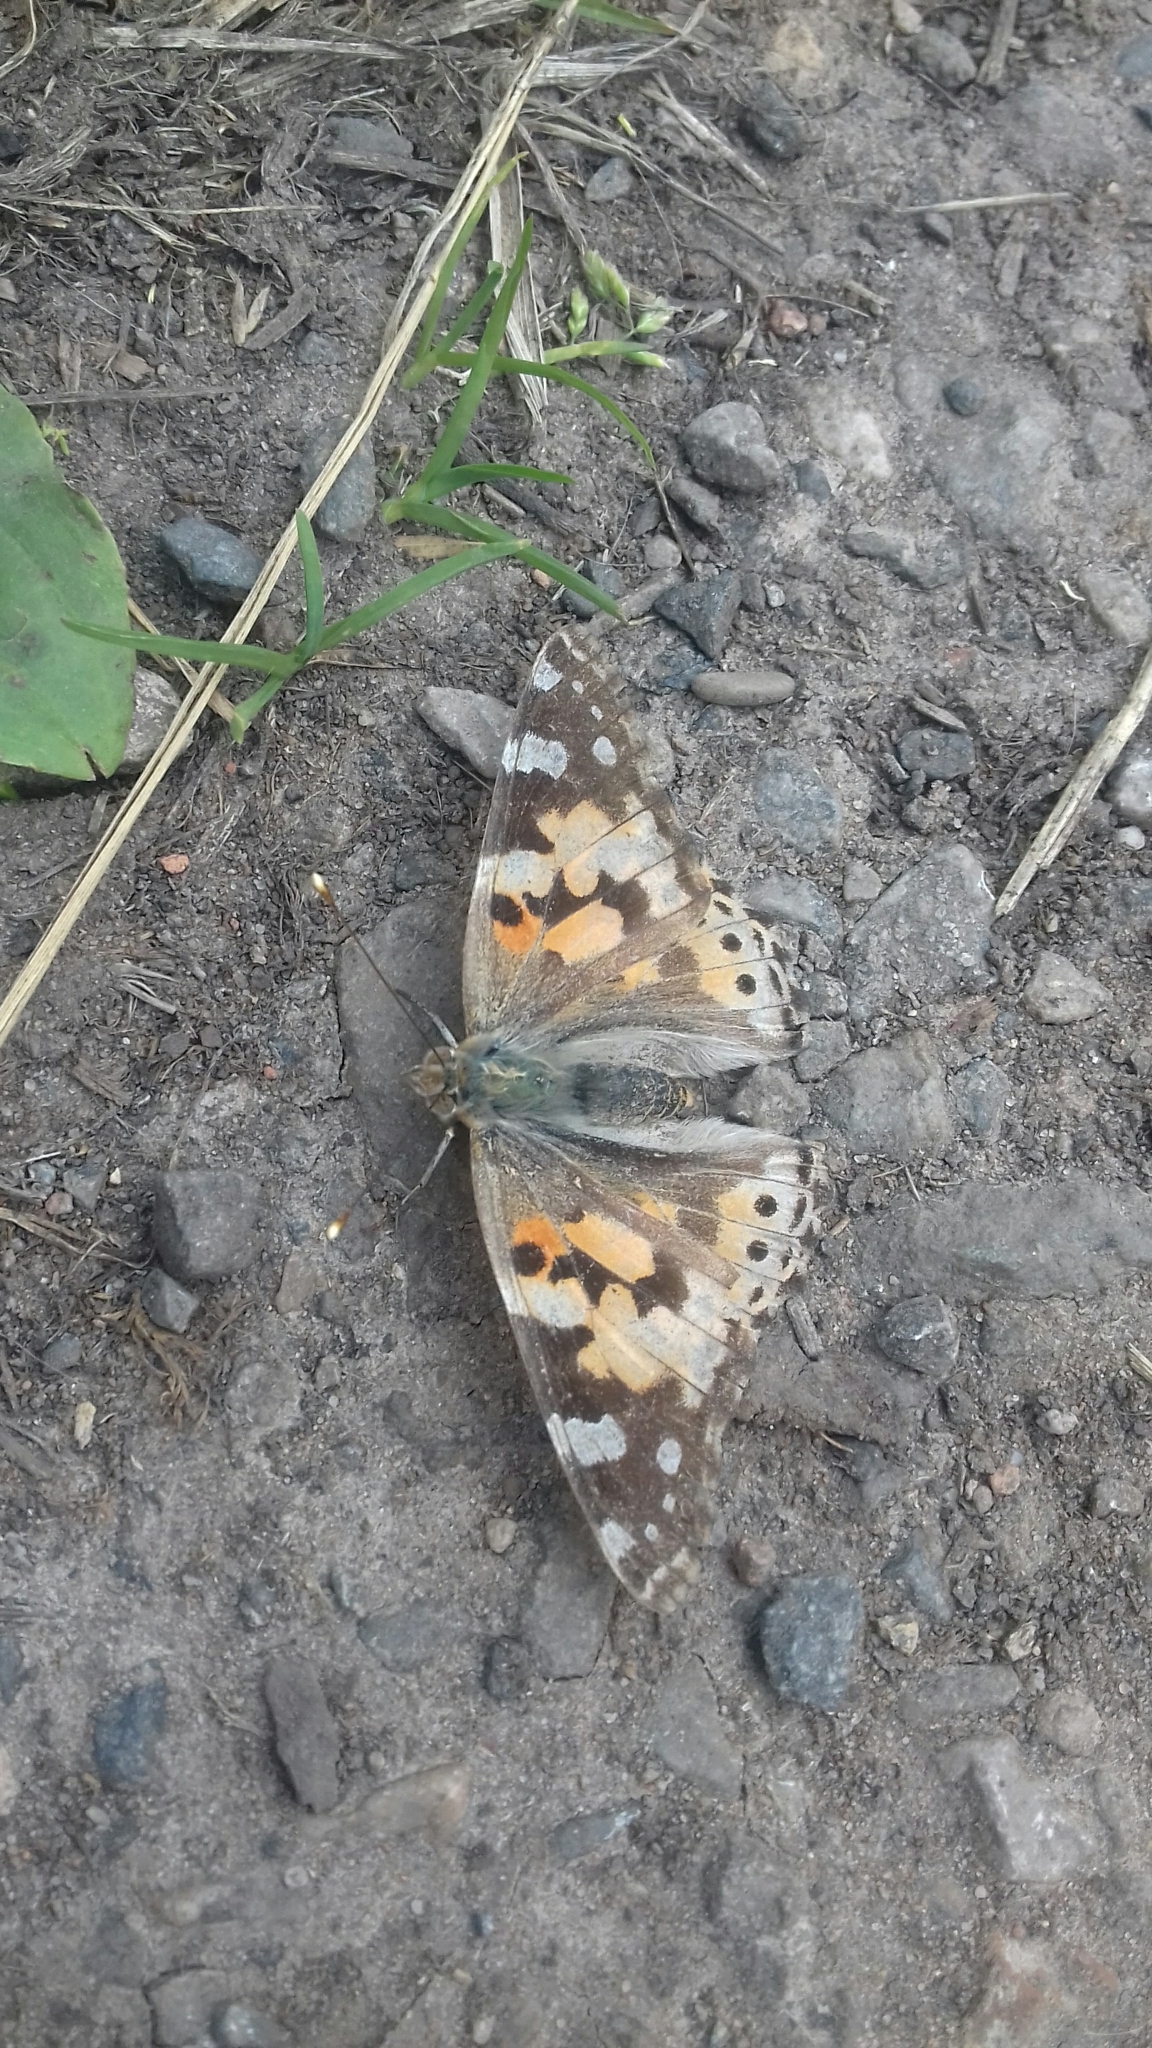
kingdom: Animalia
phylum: Arthropoda
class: Insecta
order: Lepidoptera
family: Nymphalidae
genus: Vanessa
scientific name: Vanessa cardui
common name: Painted lady
